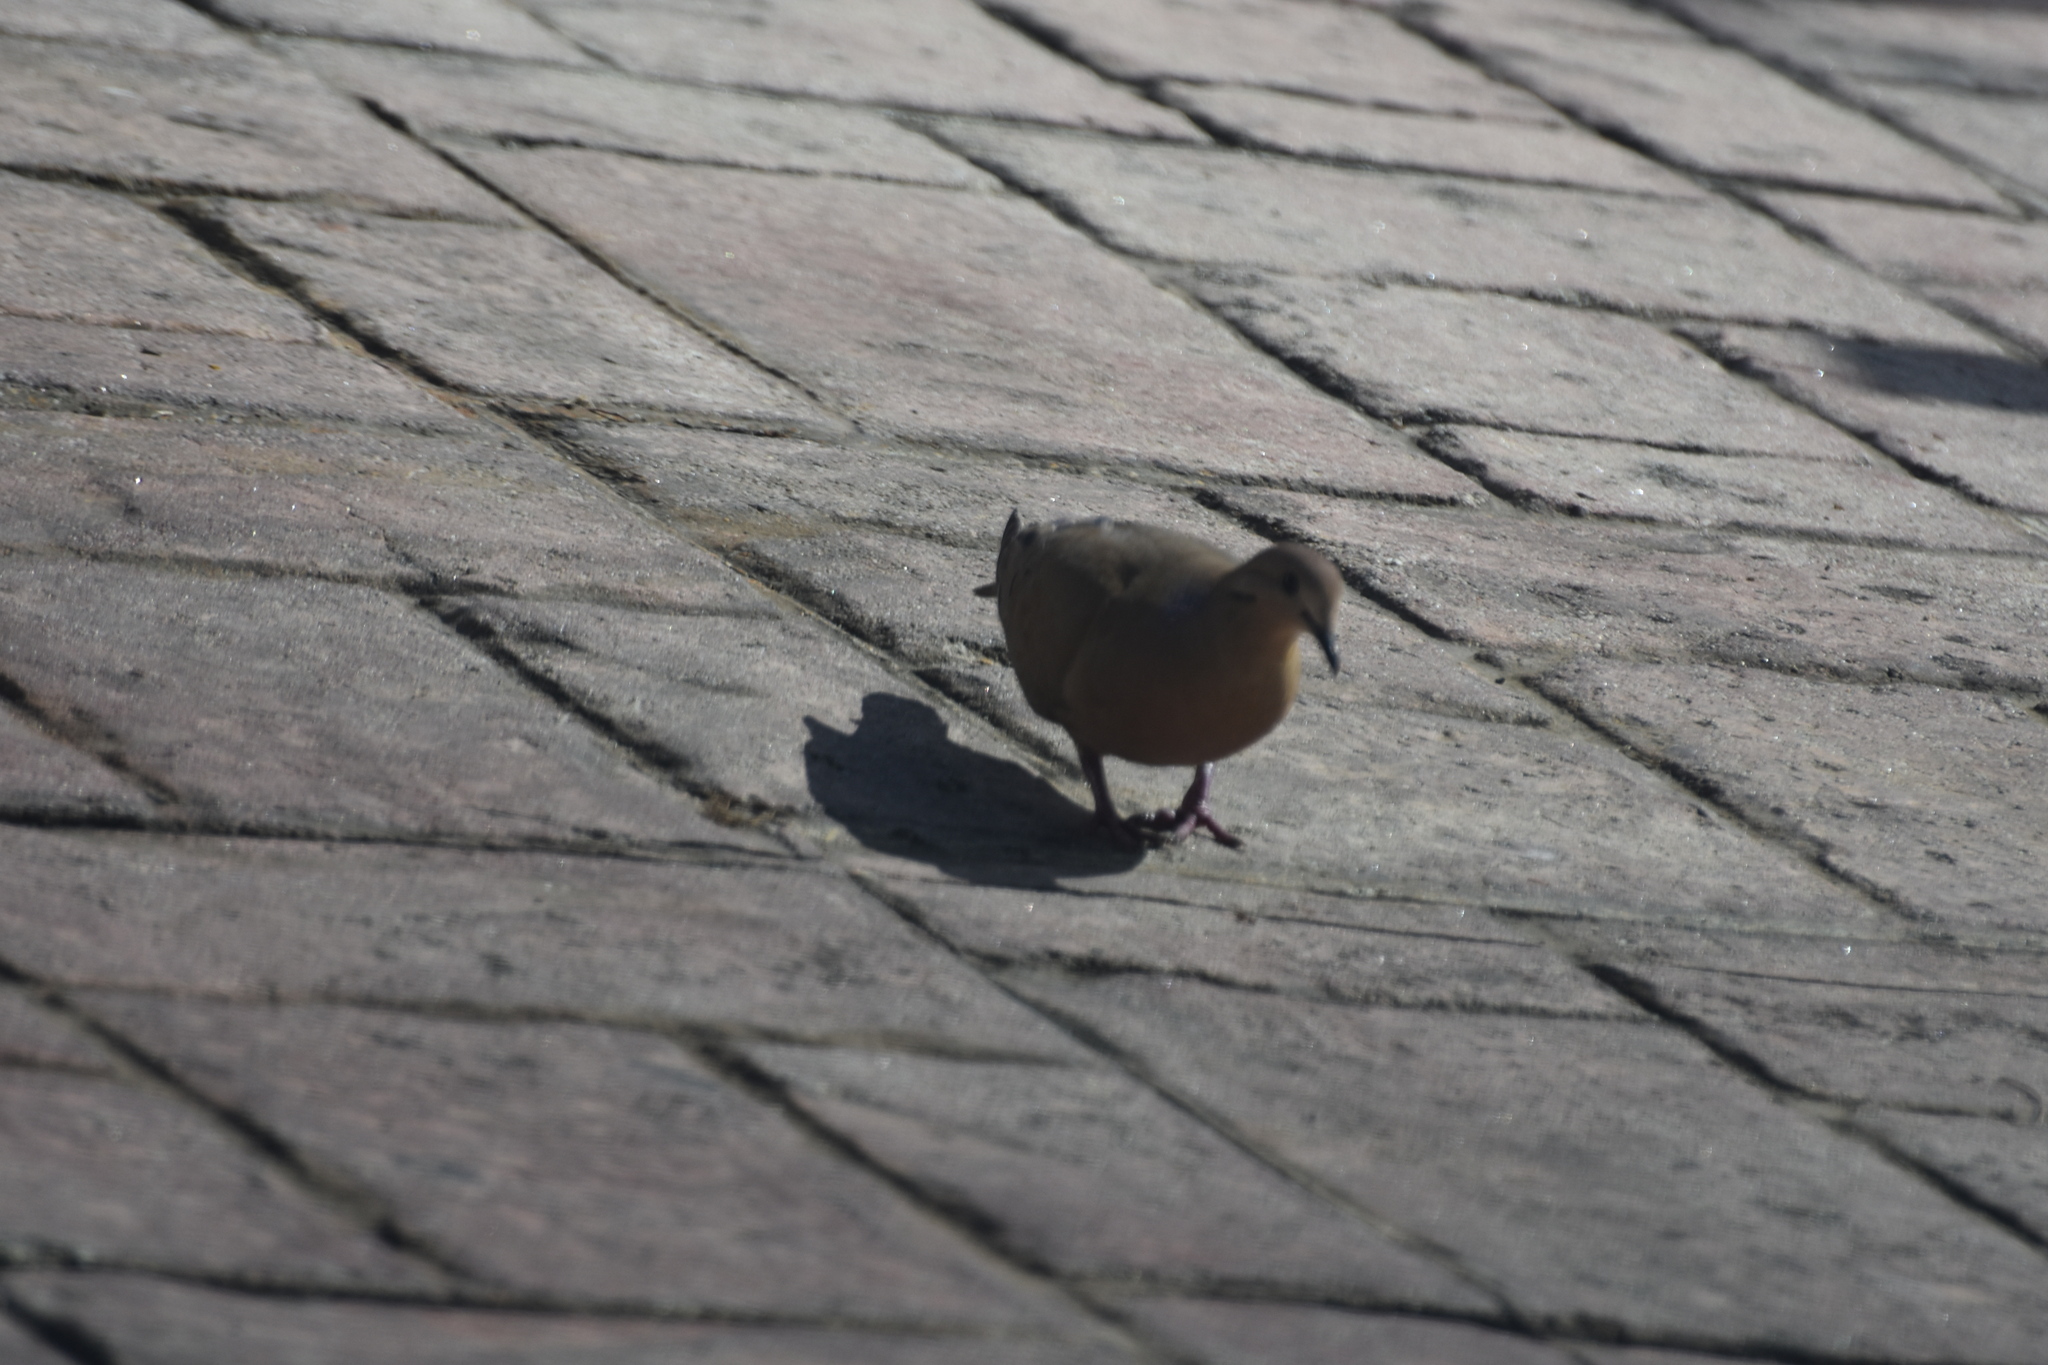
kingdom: Animalia
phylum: Chordata
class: Aves
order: Columbiformes
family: Columbidae
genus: Zenaida
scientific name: Zenaida aurita
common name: Zenaida dove
